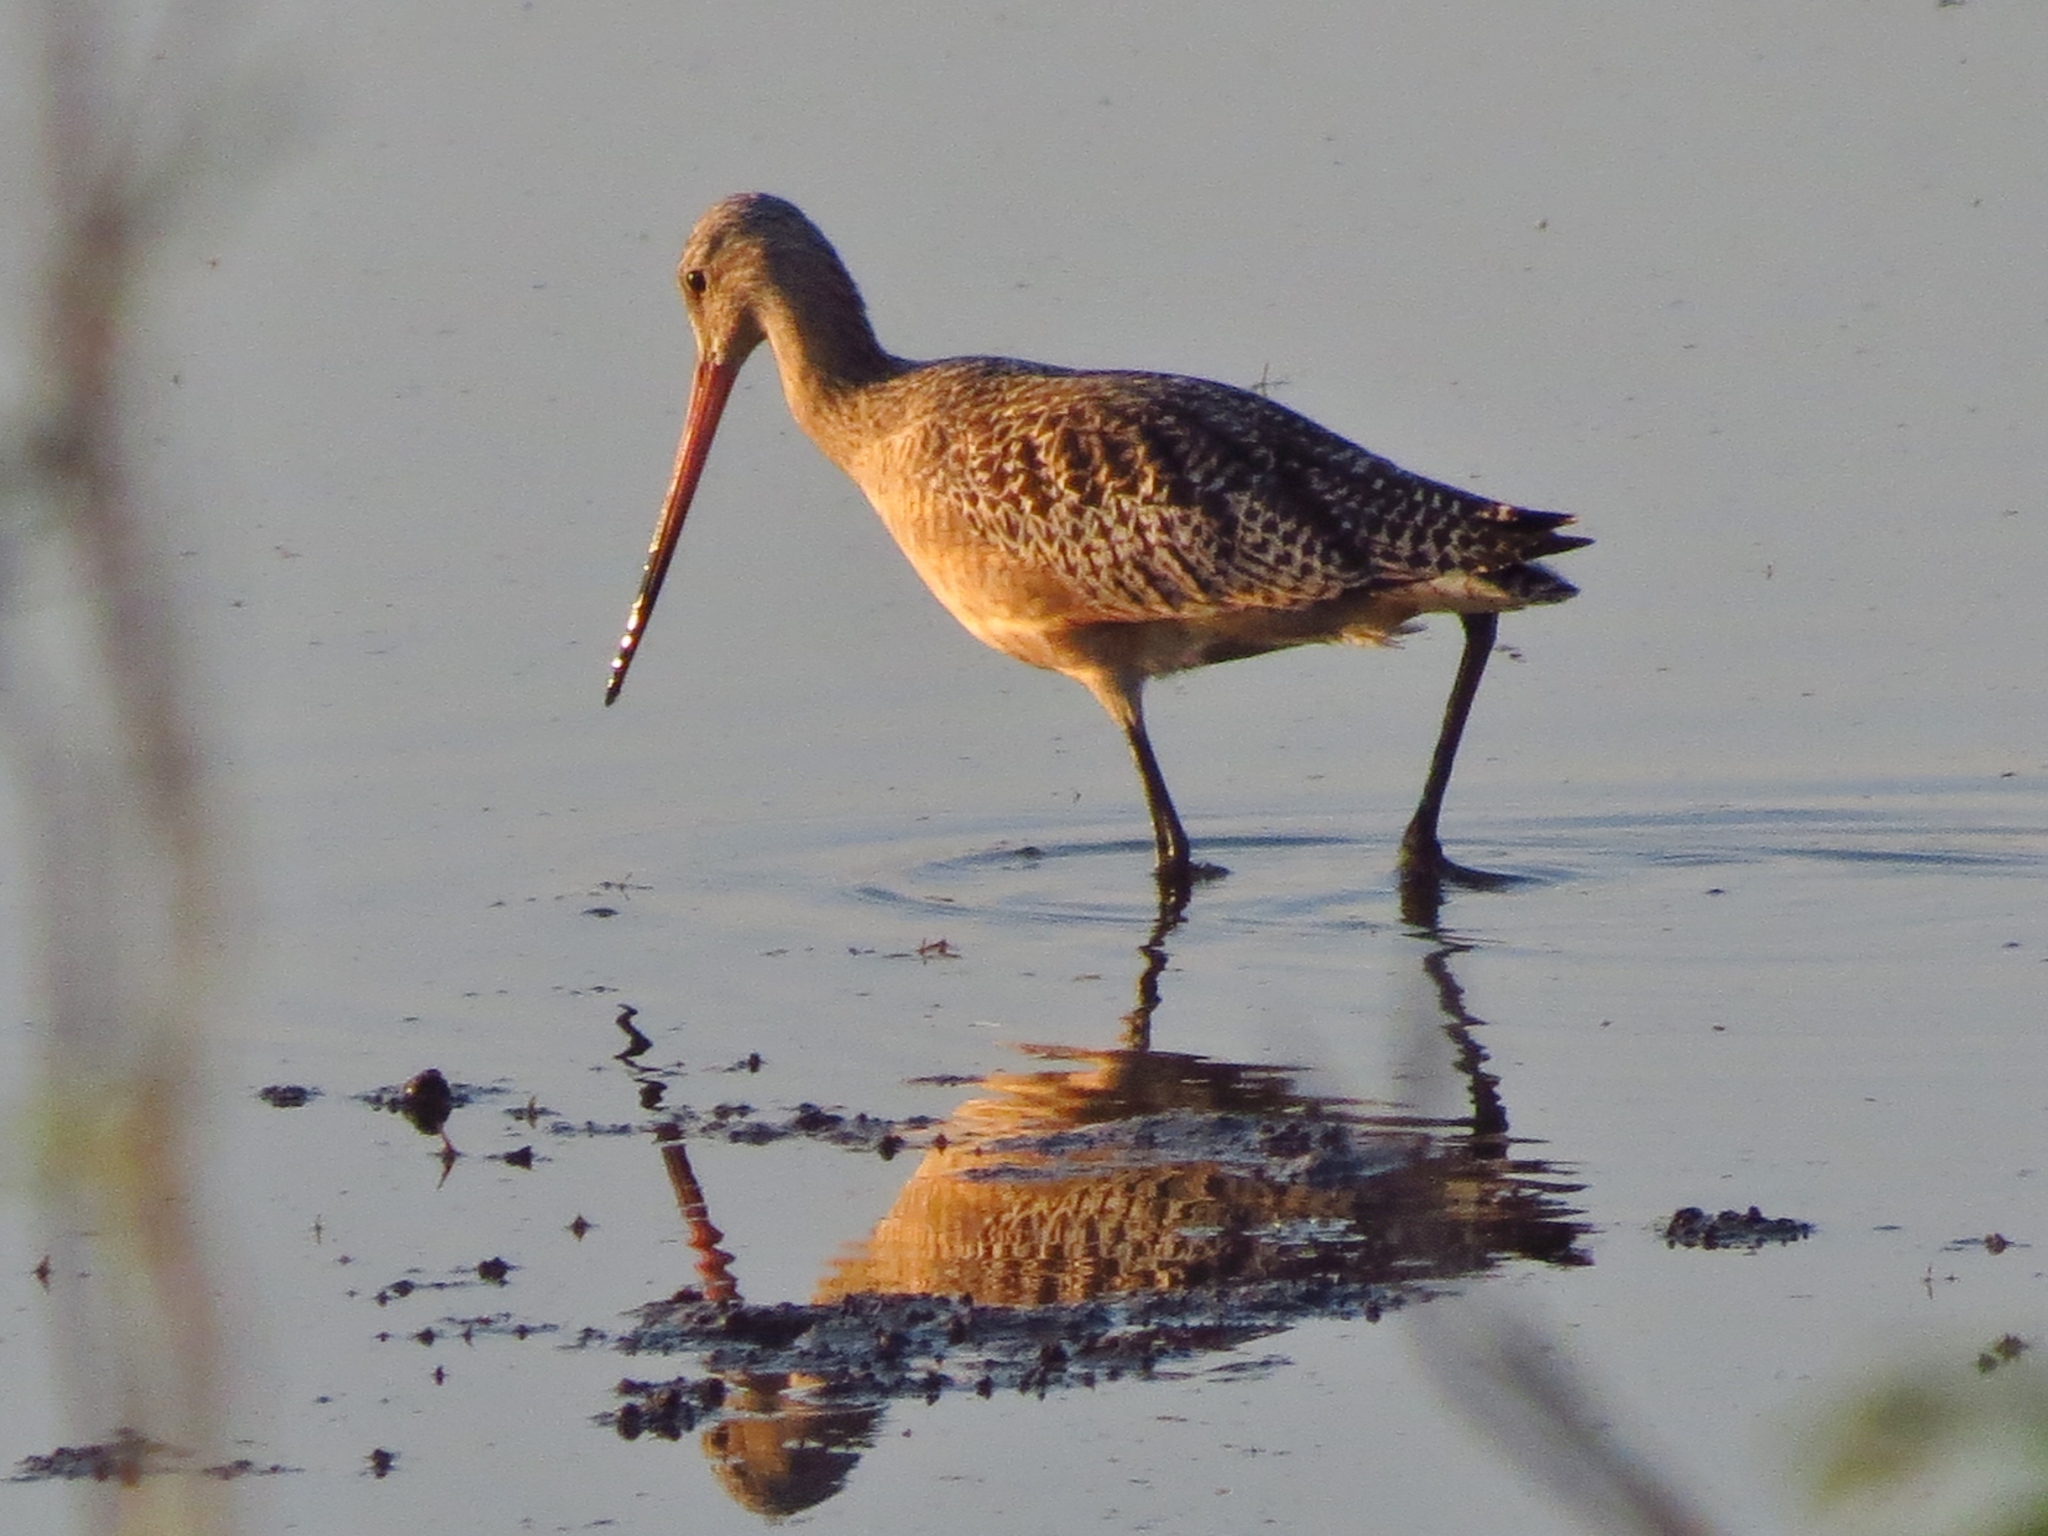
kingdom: Animalia
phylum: Chordata
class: Aves
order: Charadriiformes
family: Scolopacidae
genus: Limosa
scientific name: Limosa fedoa
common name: Marbled godwit
